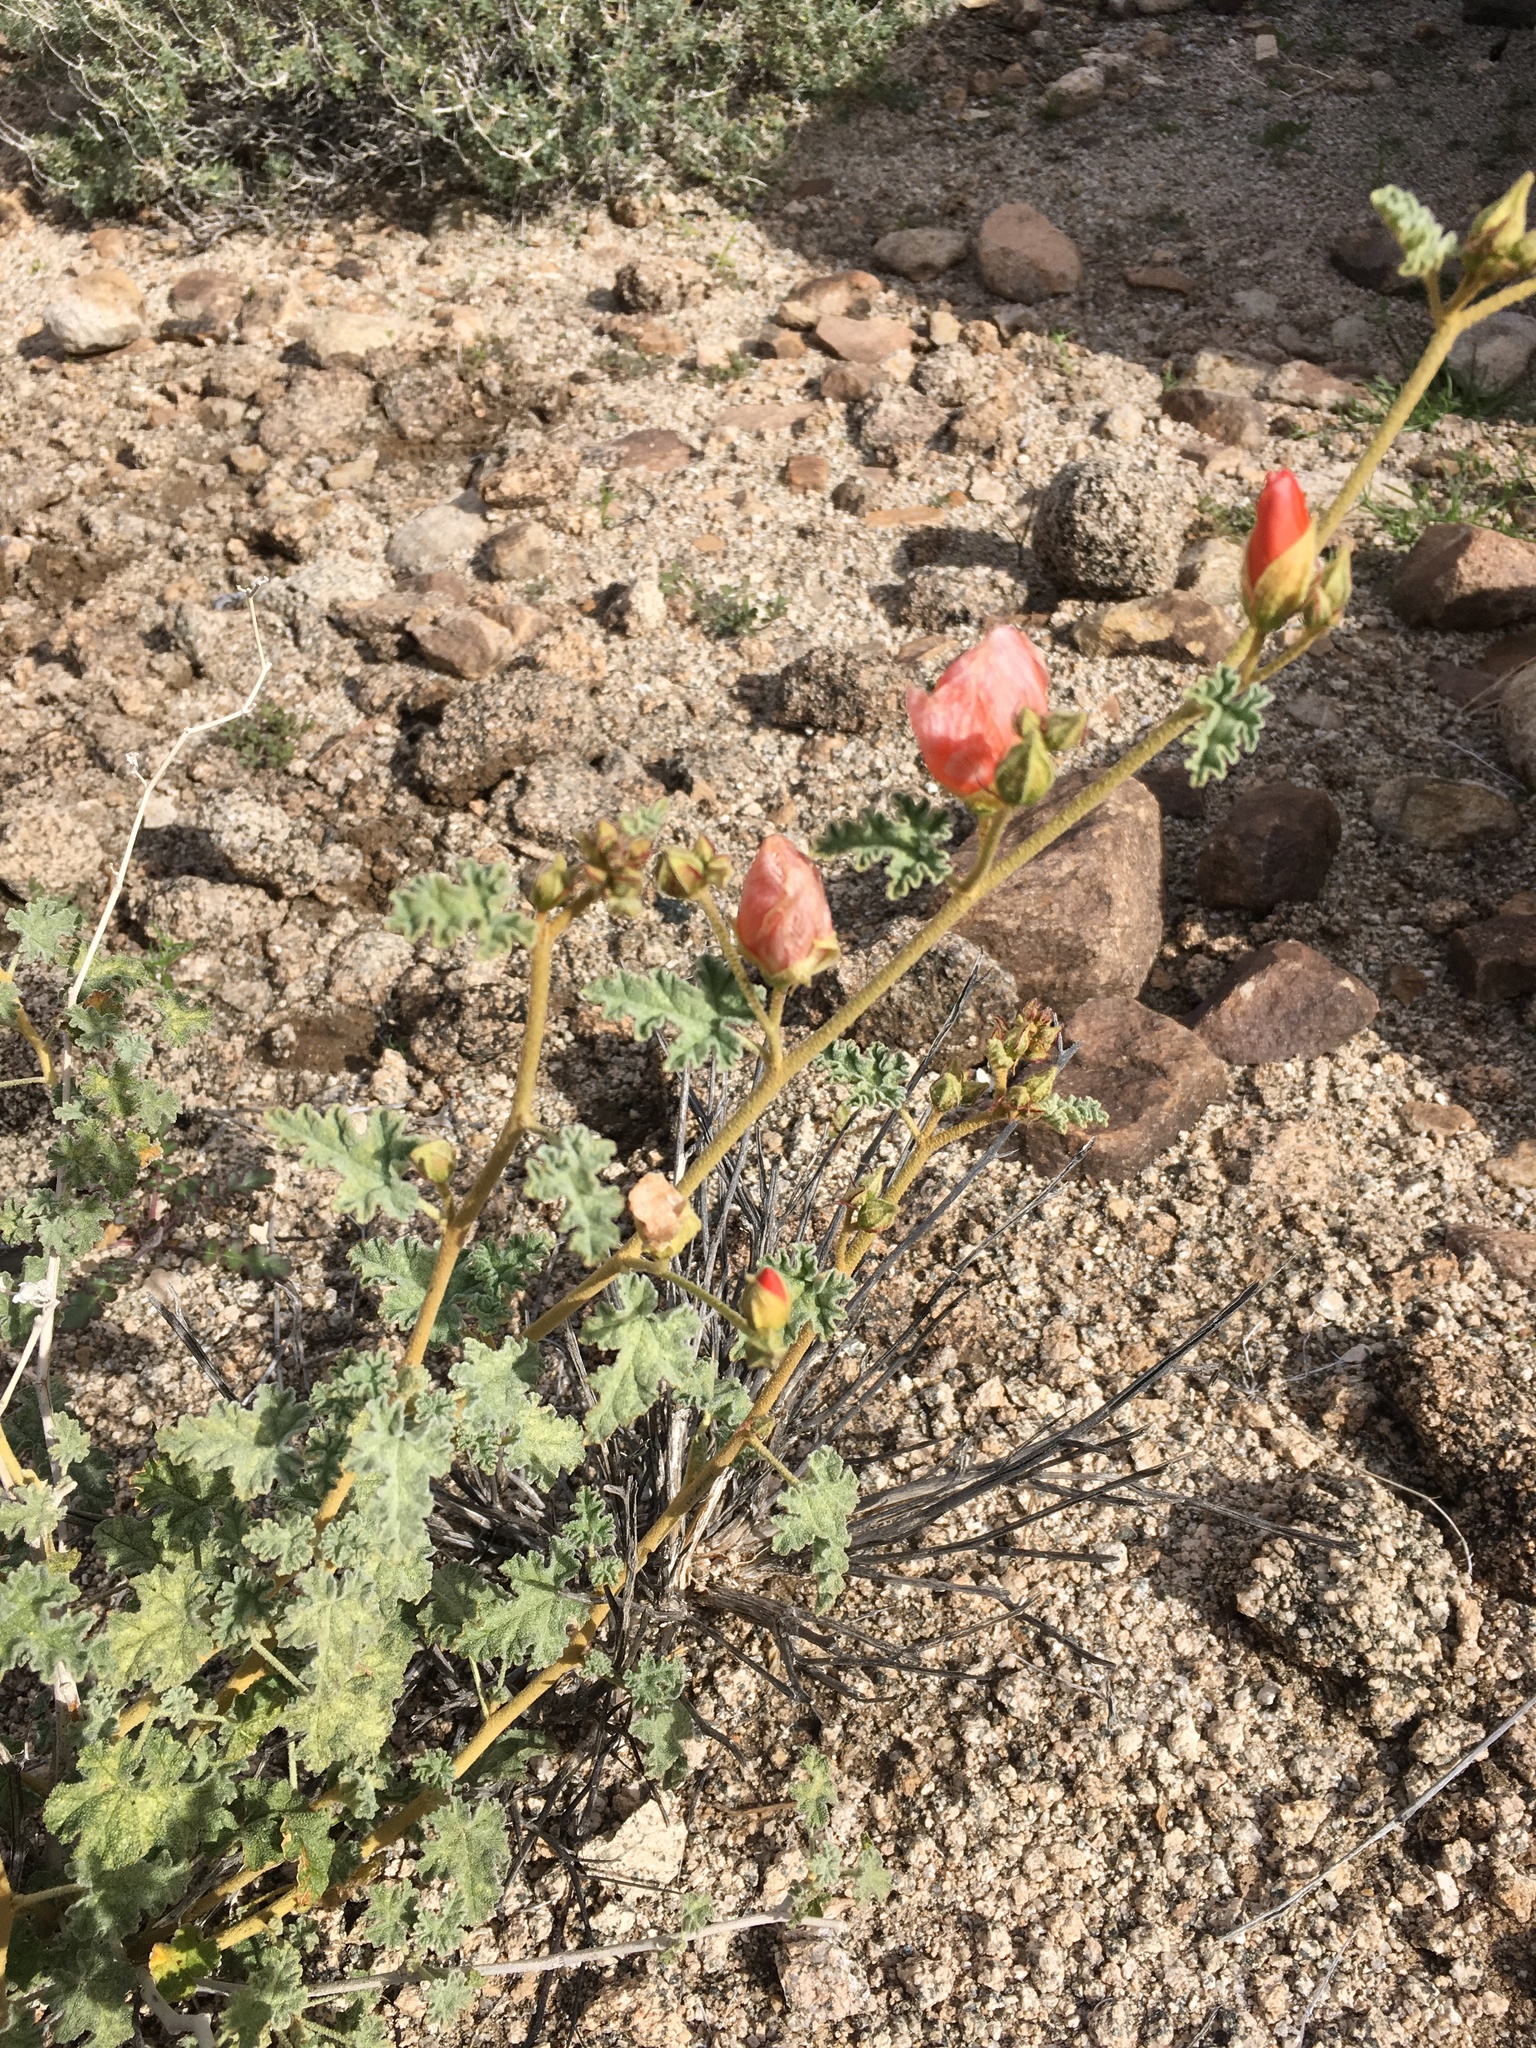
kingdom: Plantae
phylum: Tracheophyta
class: Magnoliopsida
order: Malvales
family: Malvaceae
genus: Sphaeralcea
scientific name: Sphaeralcea ambigua
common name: Apricot globe-mallow
